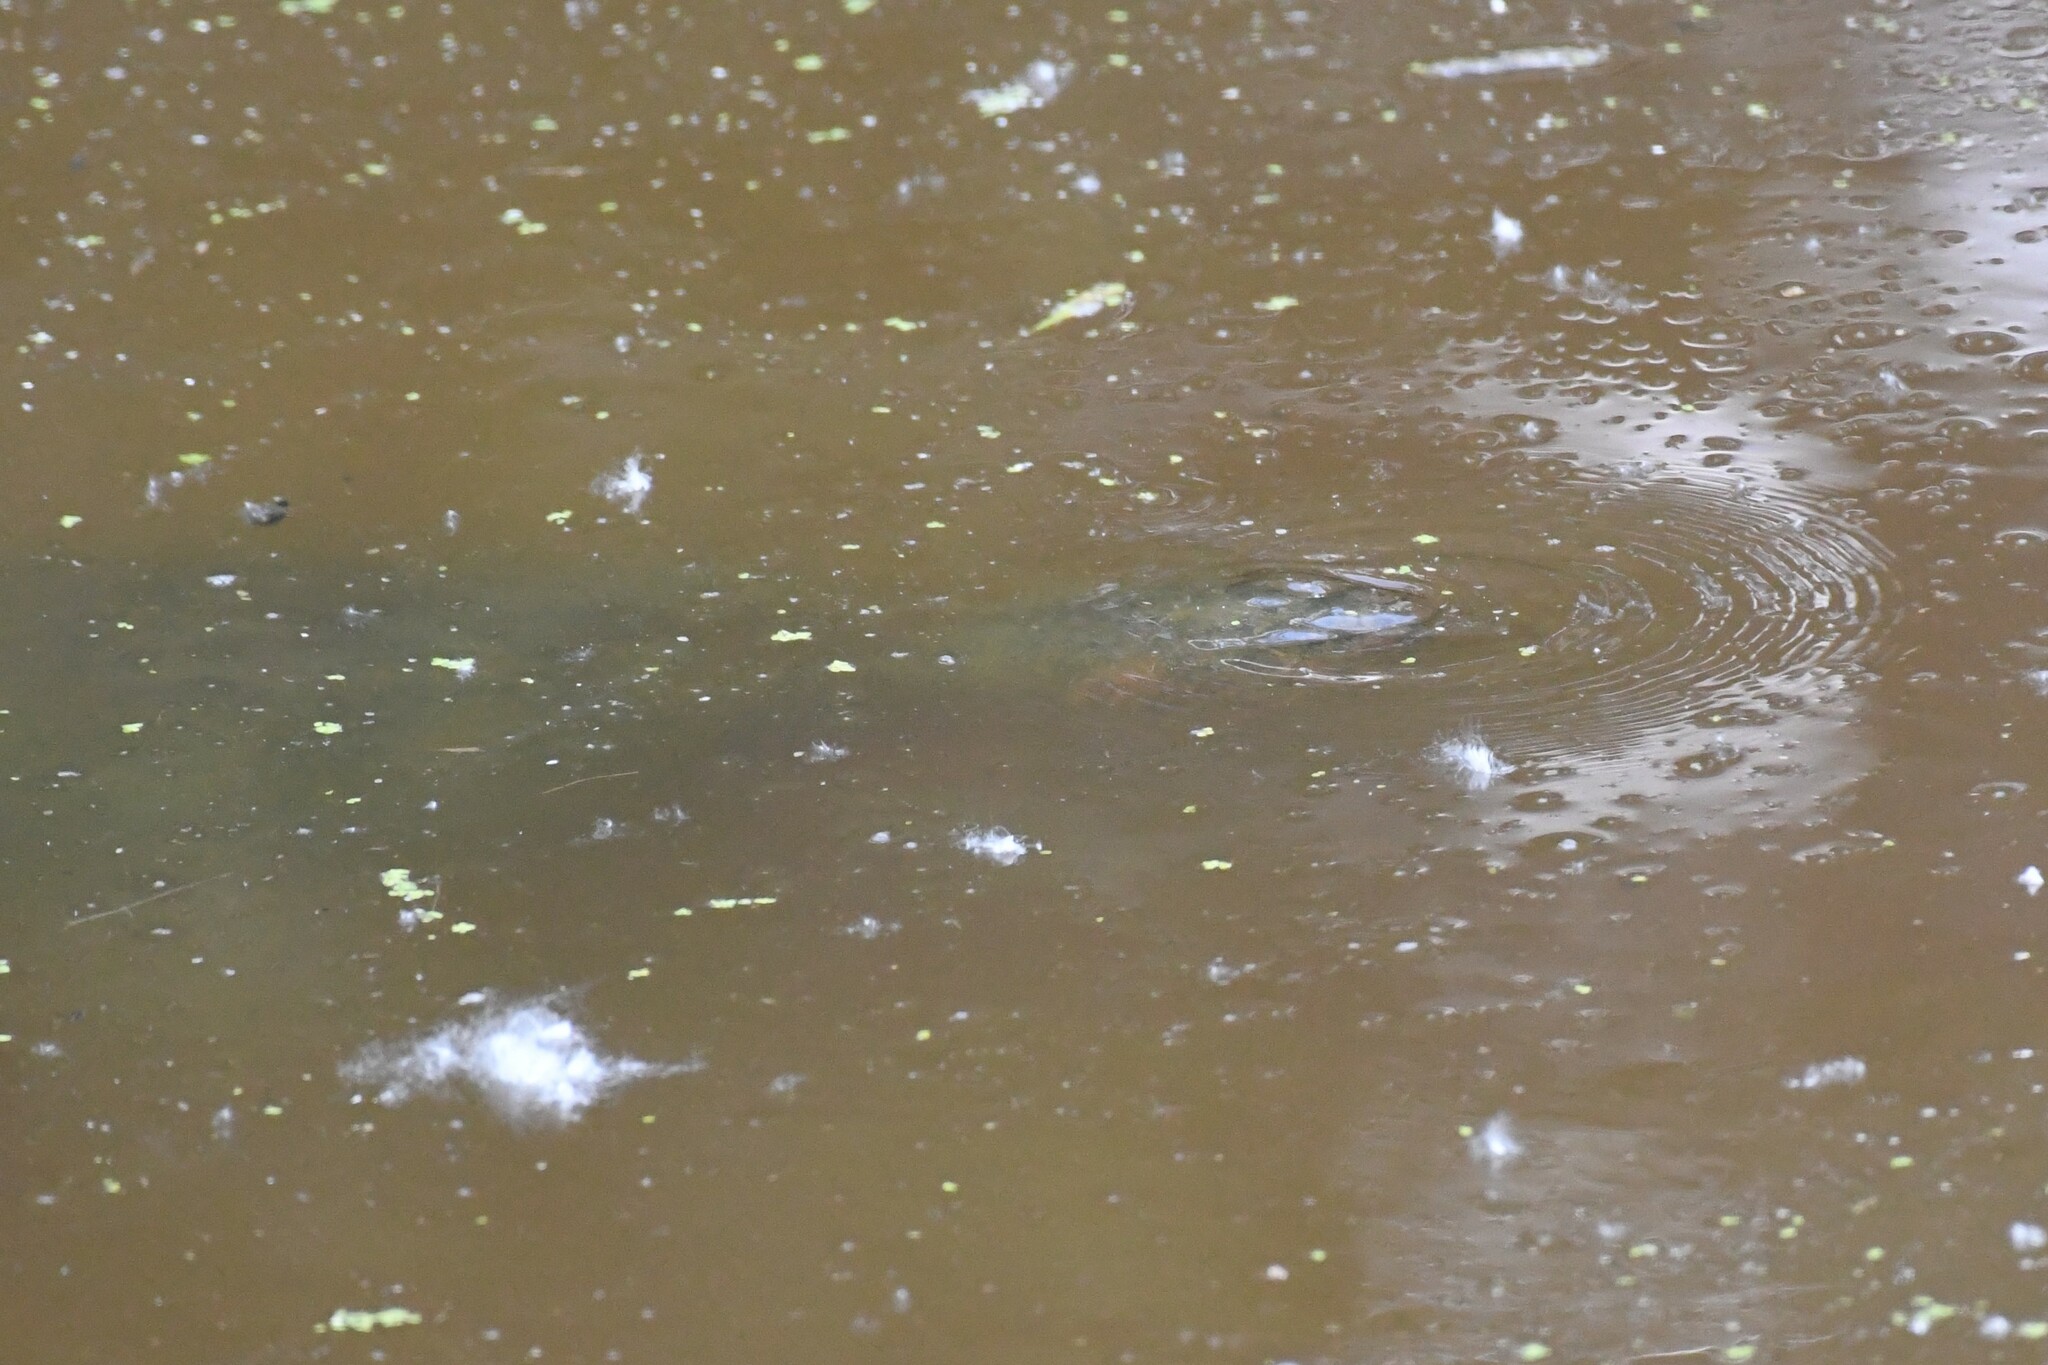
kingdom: Animalia
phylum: Chordata
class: Testudines
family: Chelydridae
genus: Chelydra
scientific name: Chelydra serpentina
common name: Common snapping turtle
